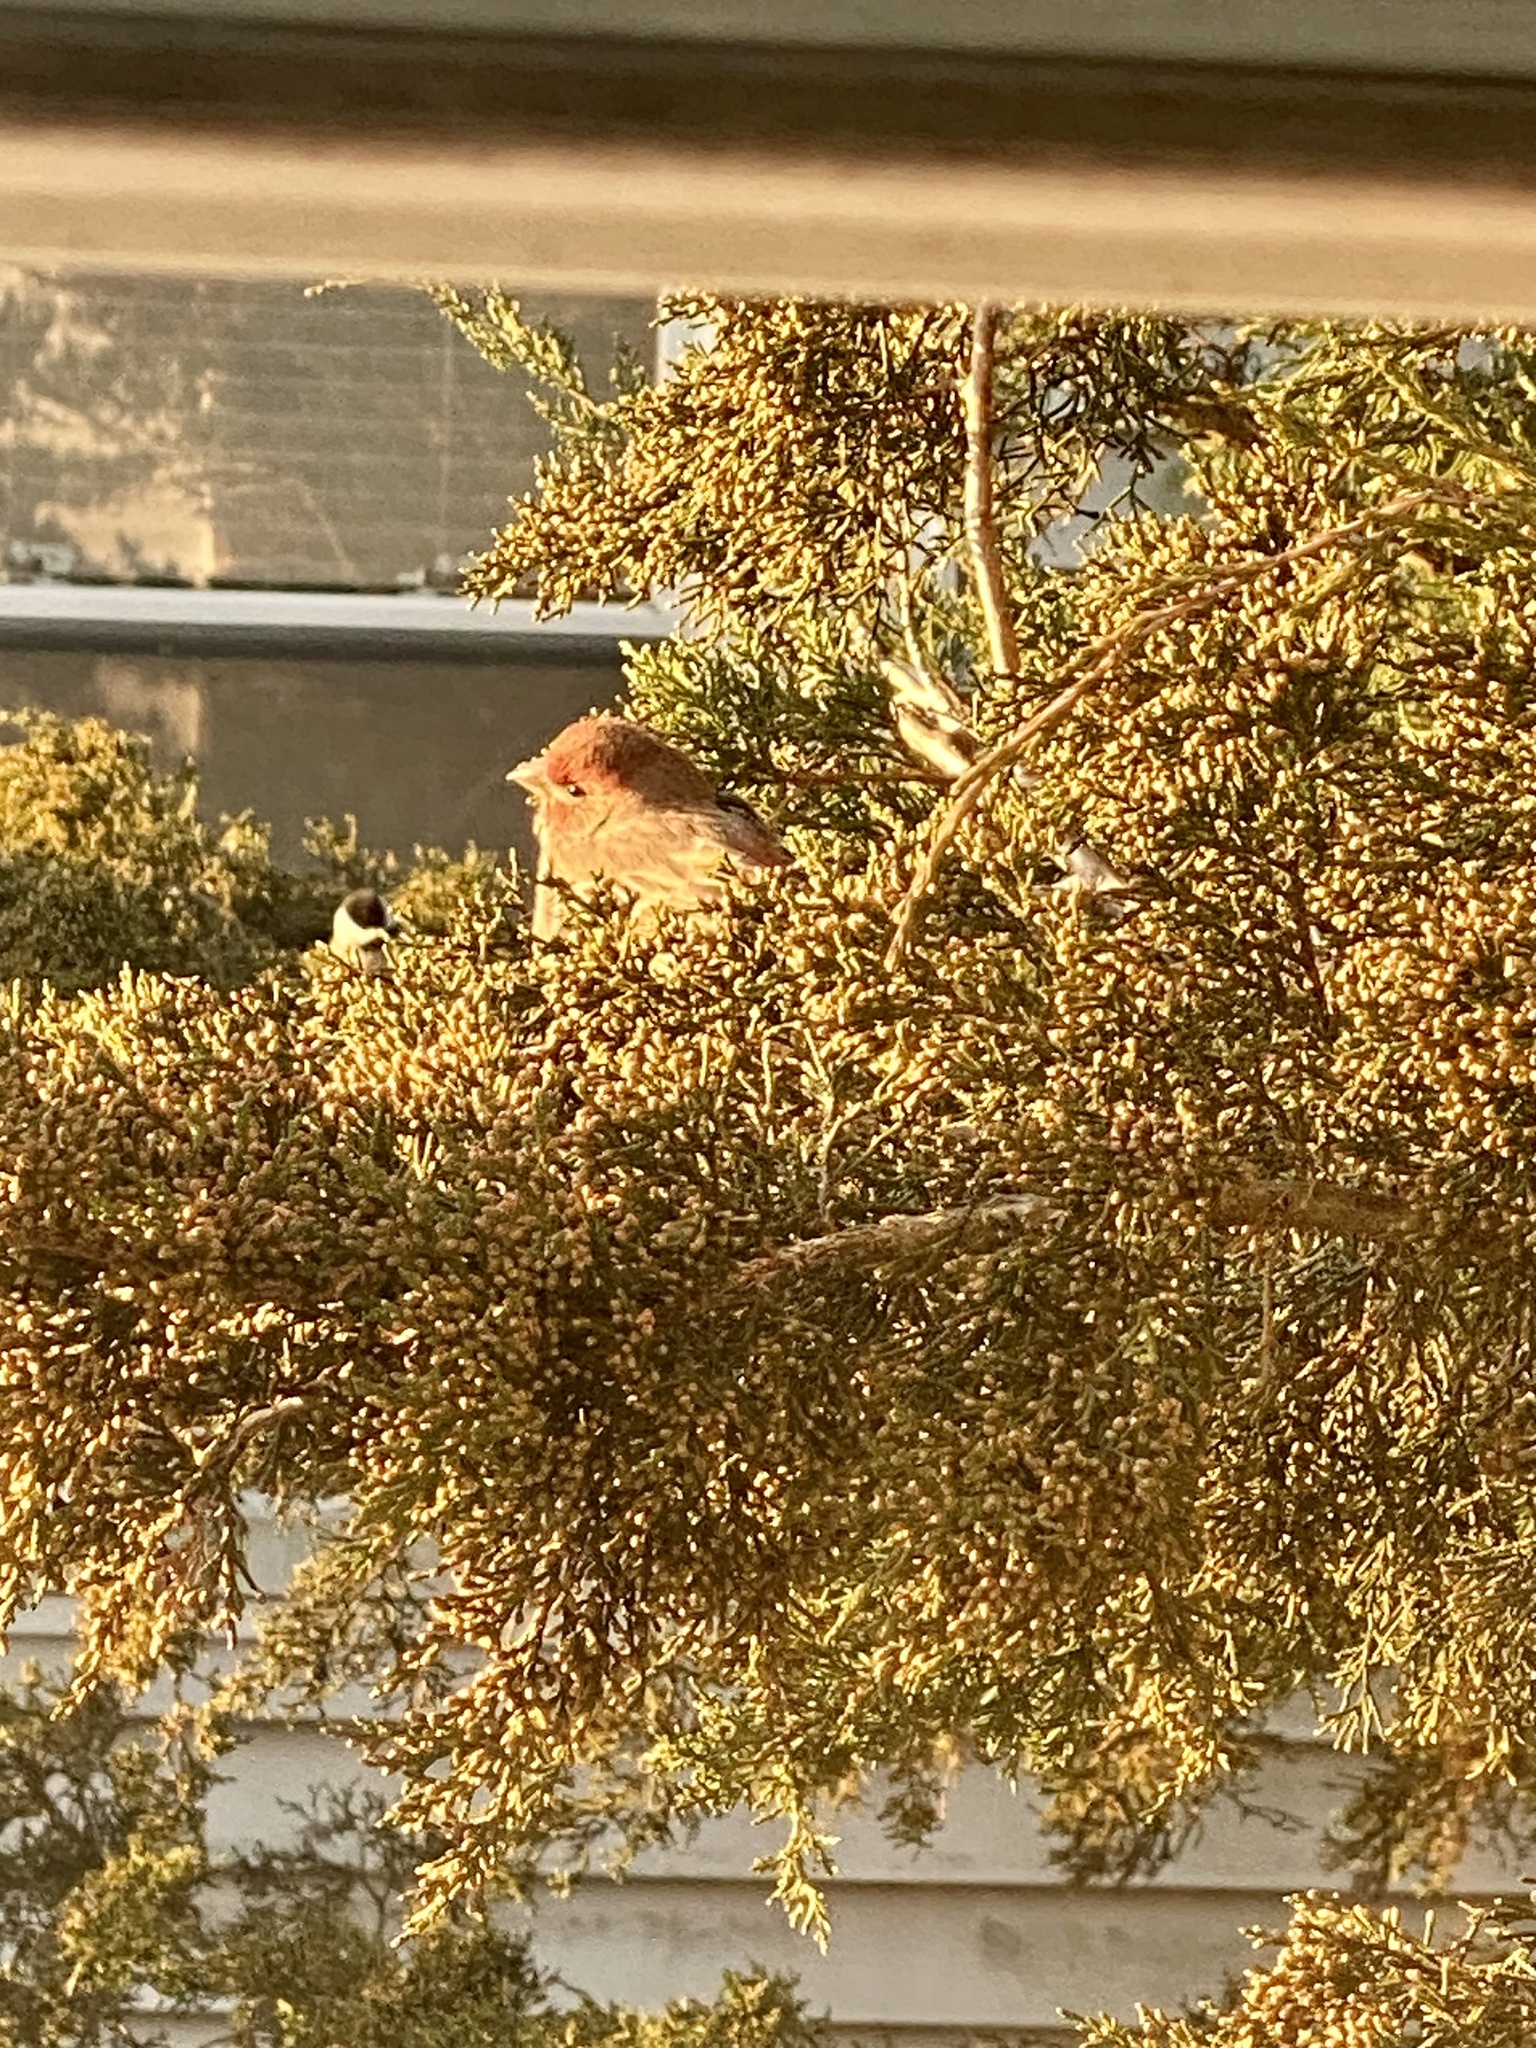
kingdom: Animalia
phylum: Chordata
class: Aves
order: Passeriformes
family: Fringillidae
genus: Haemorhous
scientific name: Haemorhous mexicanus
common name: House finch
